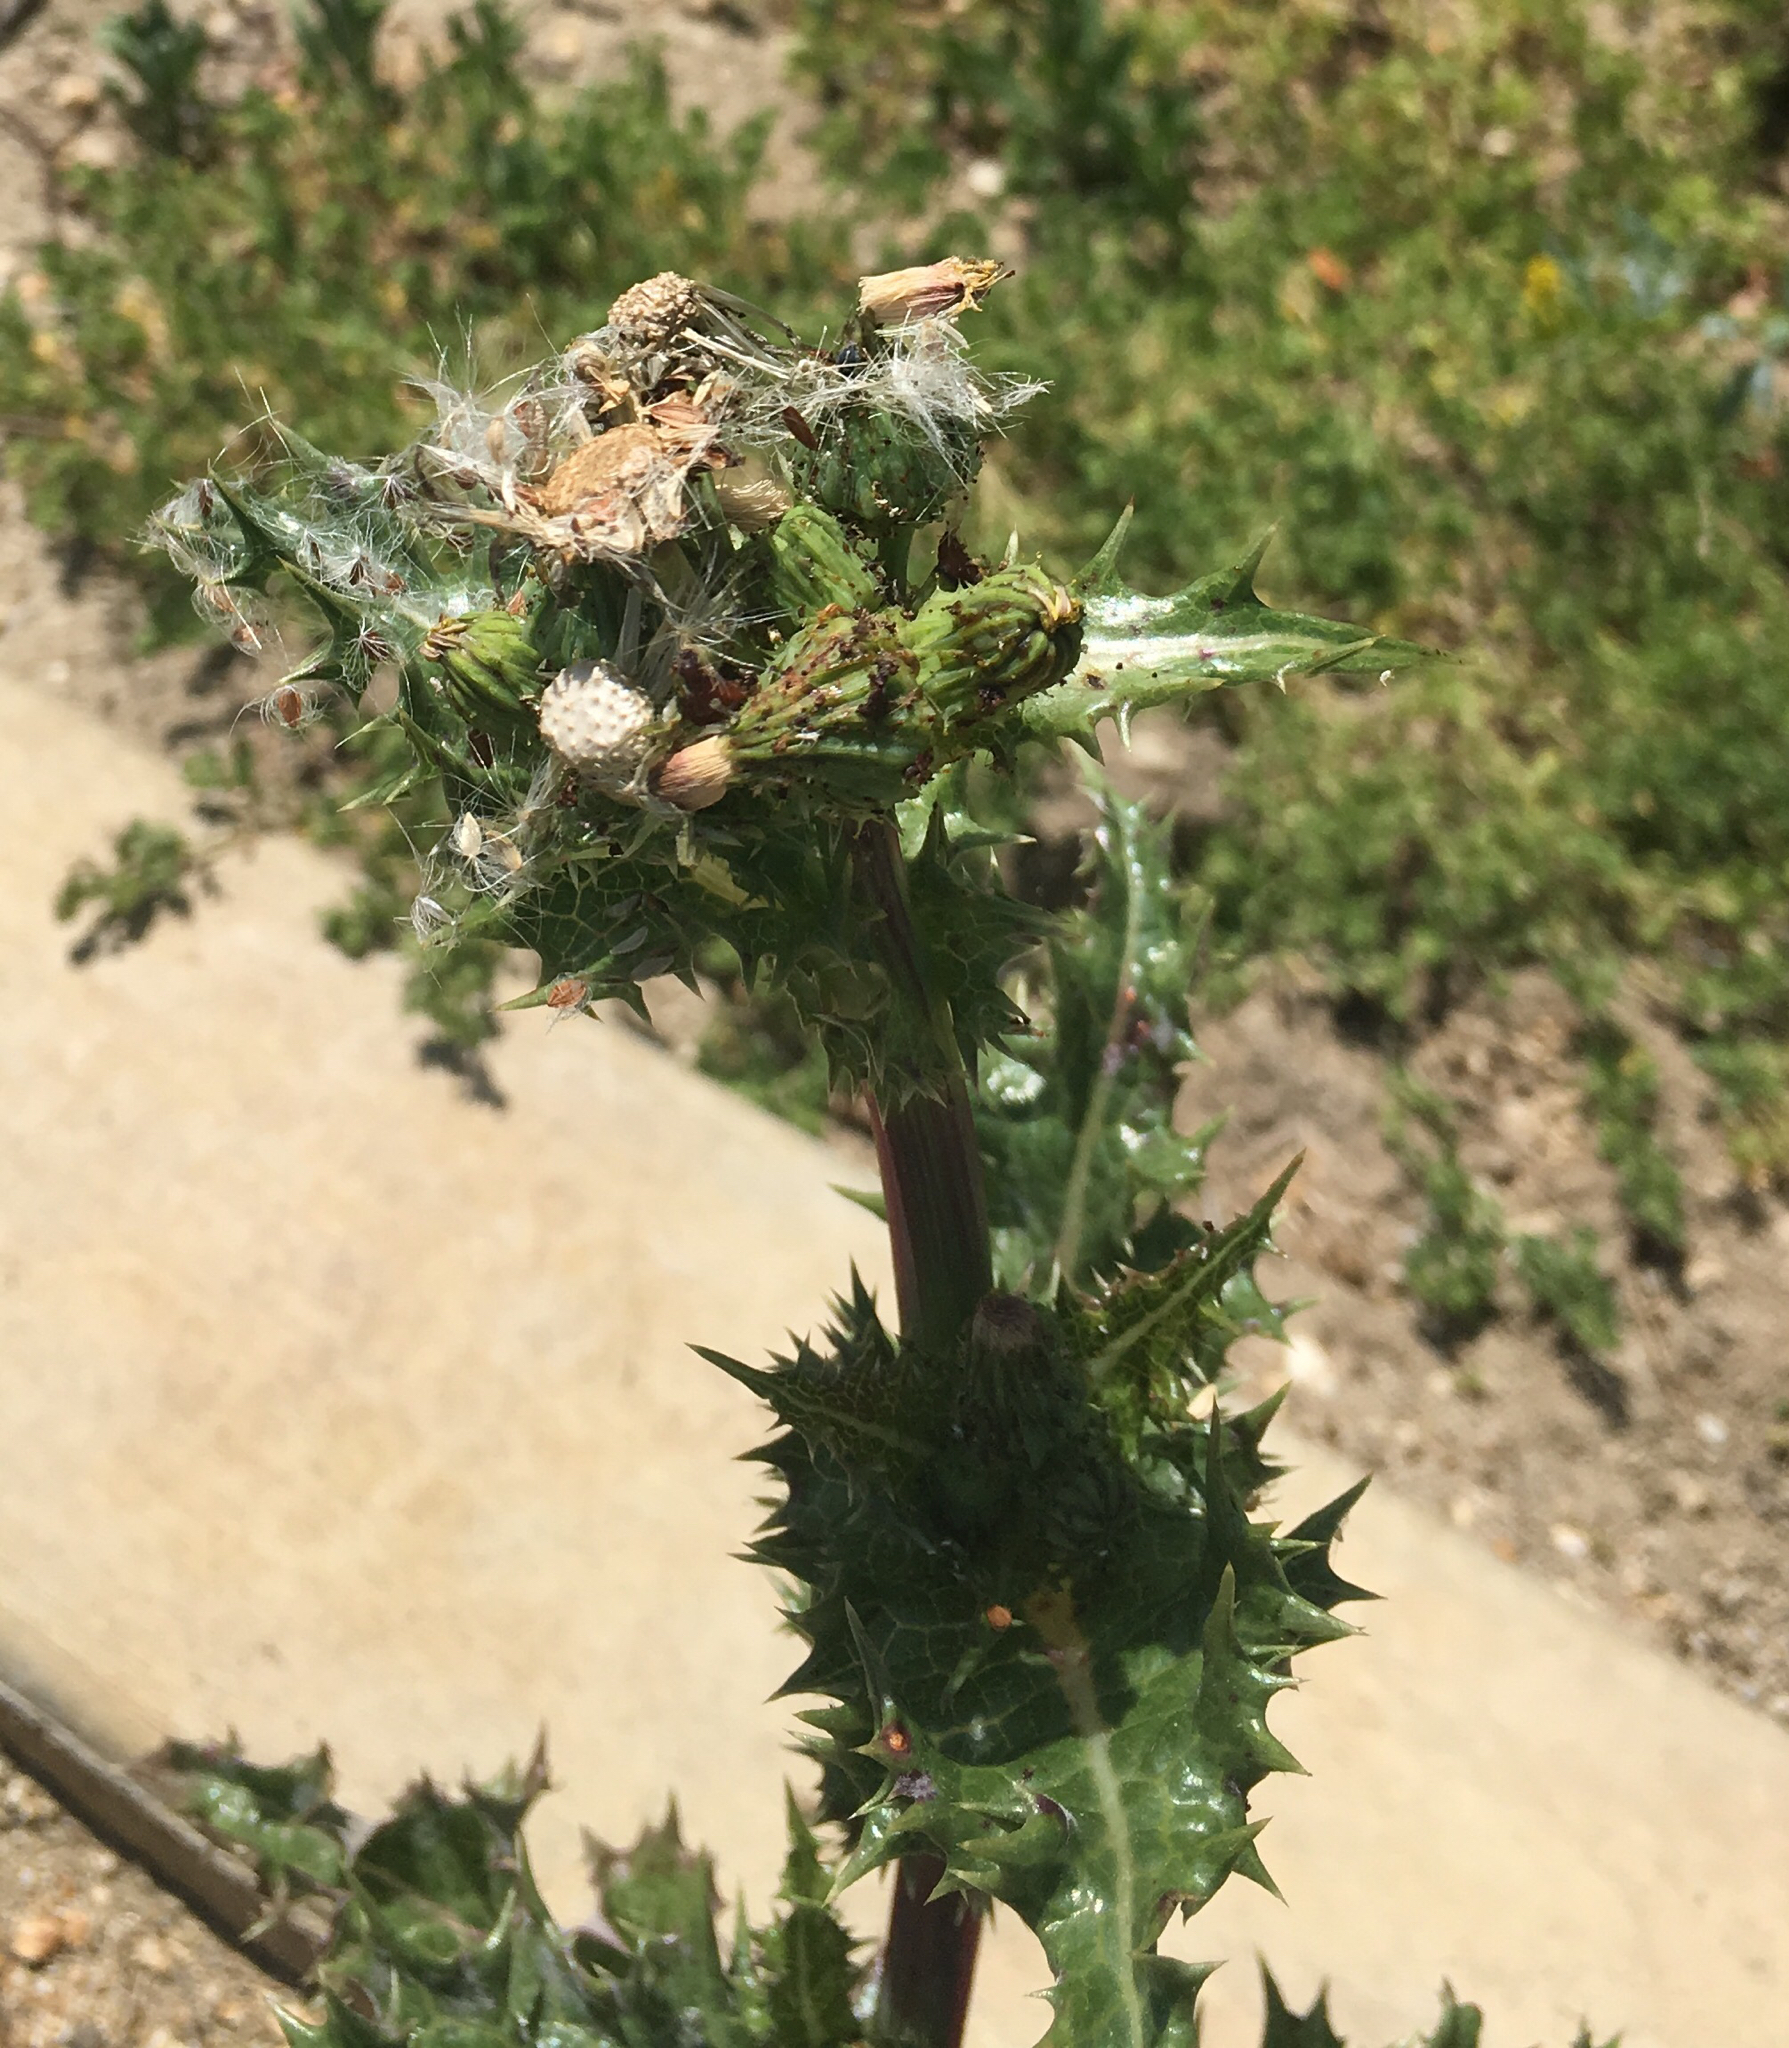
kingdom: Plantae
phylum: Tracheophyta
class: Magnoliopsida
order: Asterales
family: Asteraceae
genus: Sonchus
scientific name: Sonchus asper
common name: Prickly sow-thistle
